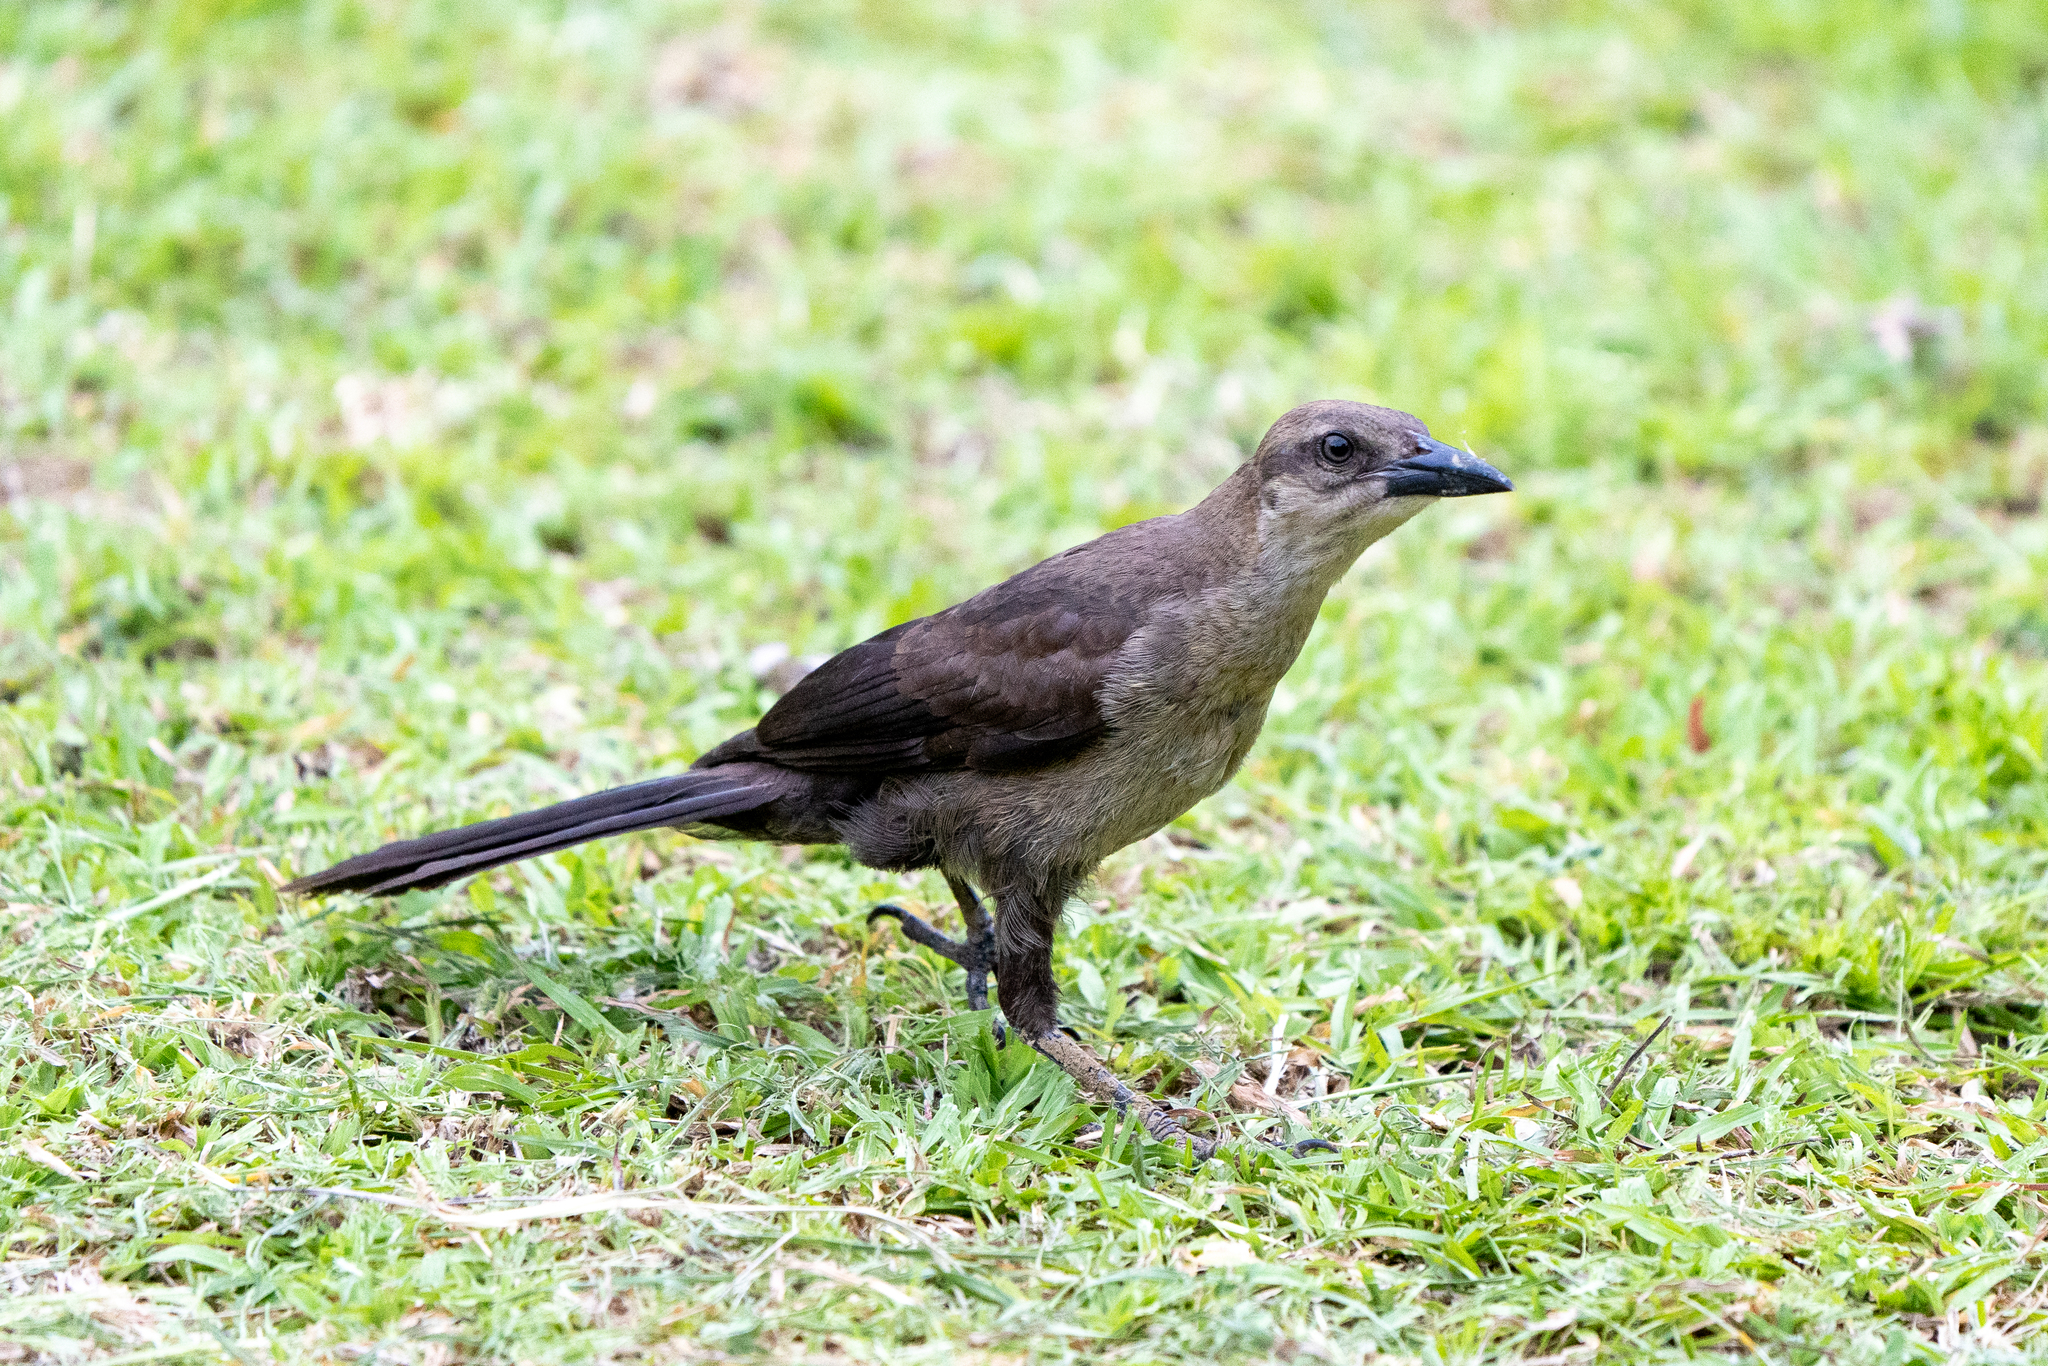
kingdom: Animalia
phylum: Chordata
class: Aves
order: Passeriformes
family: Icteridae
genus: Quiscalus
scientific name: Quiscalus mexicanus
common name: Great-tailed grackle
